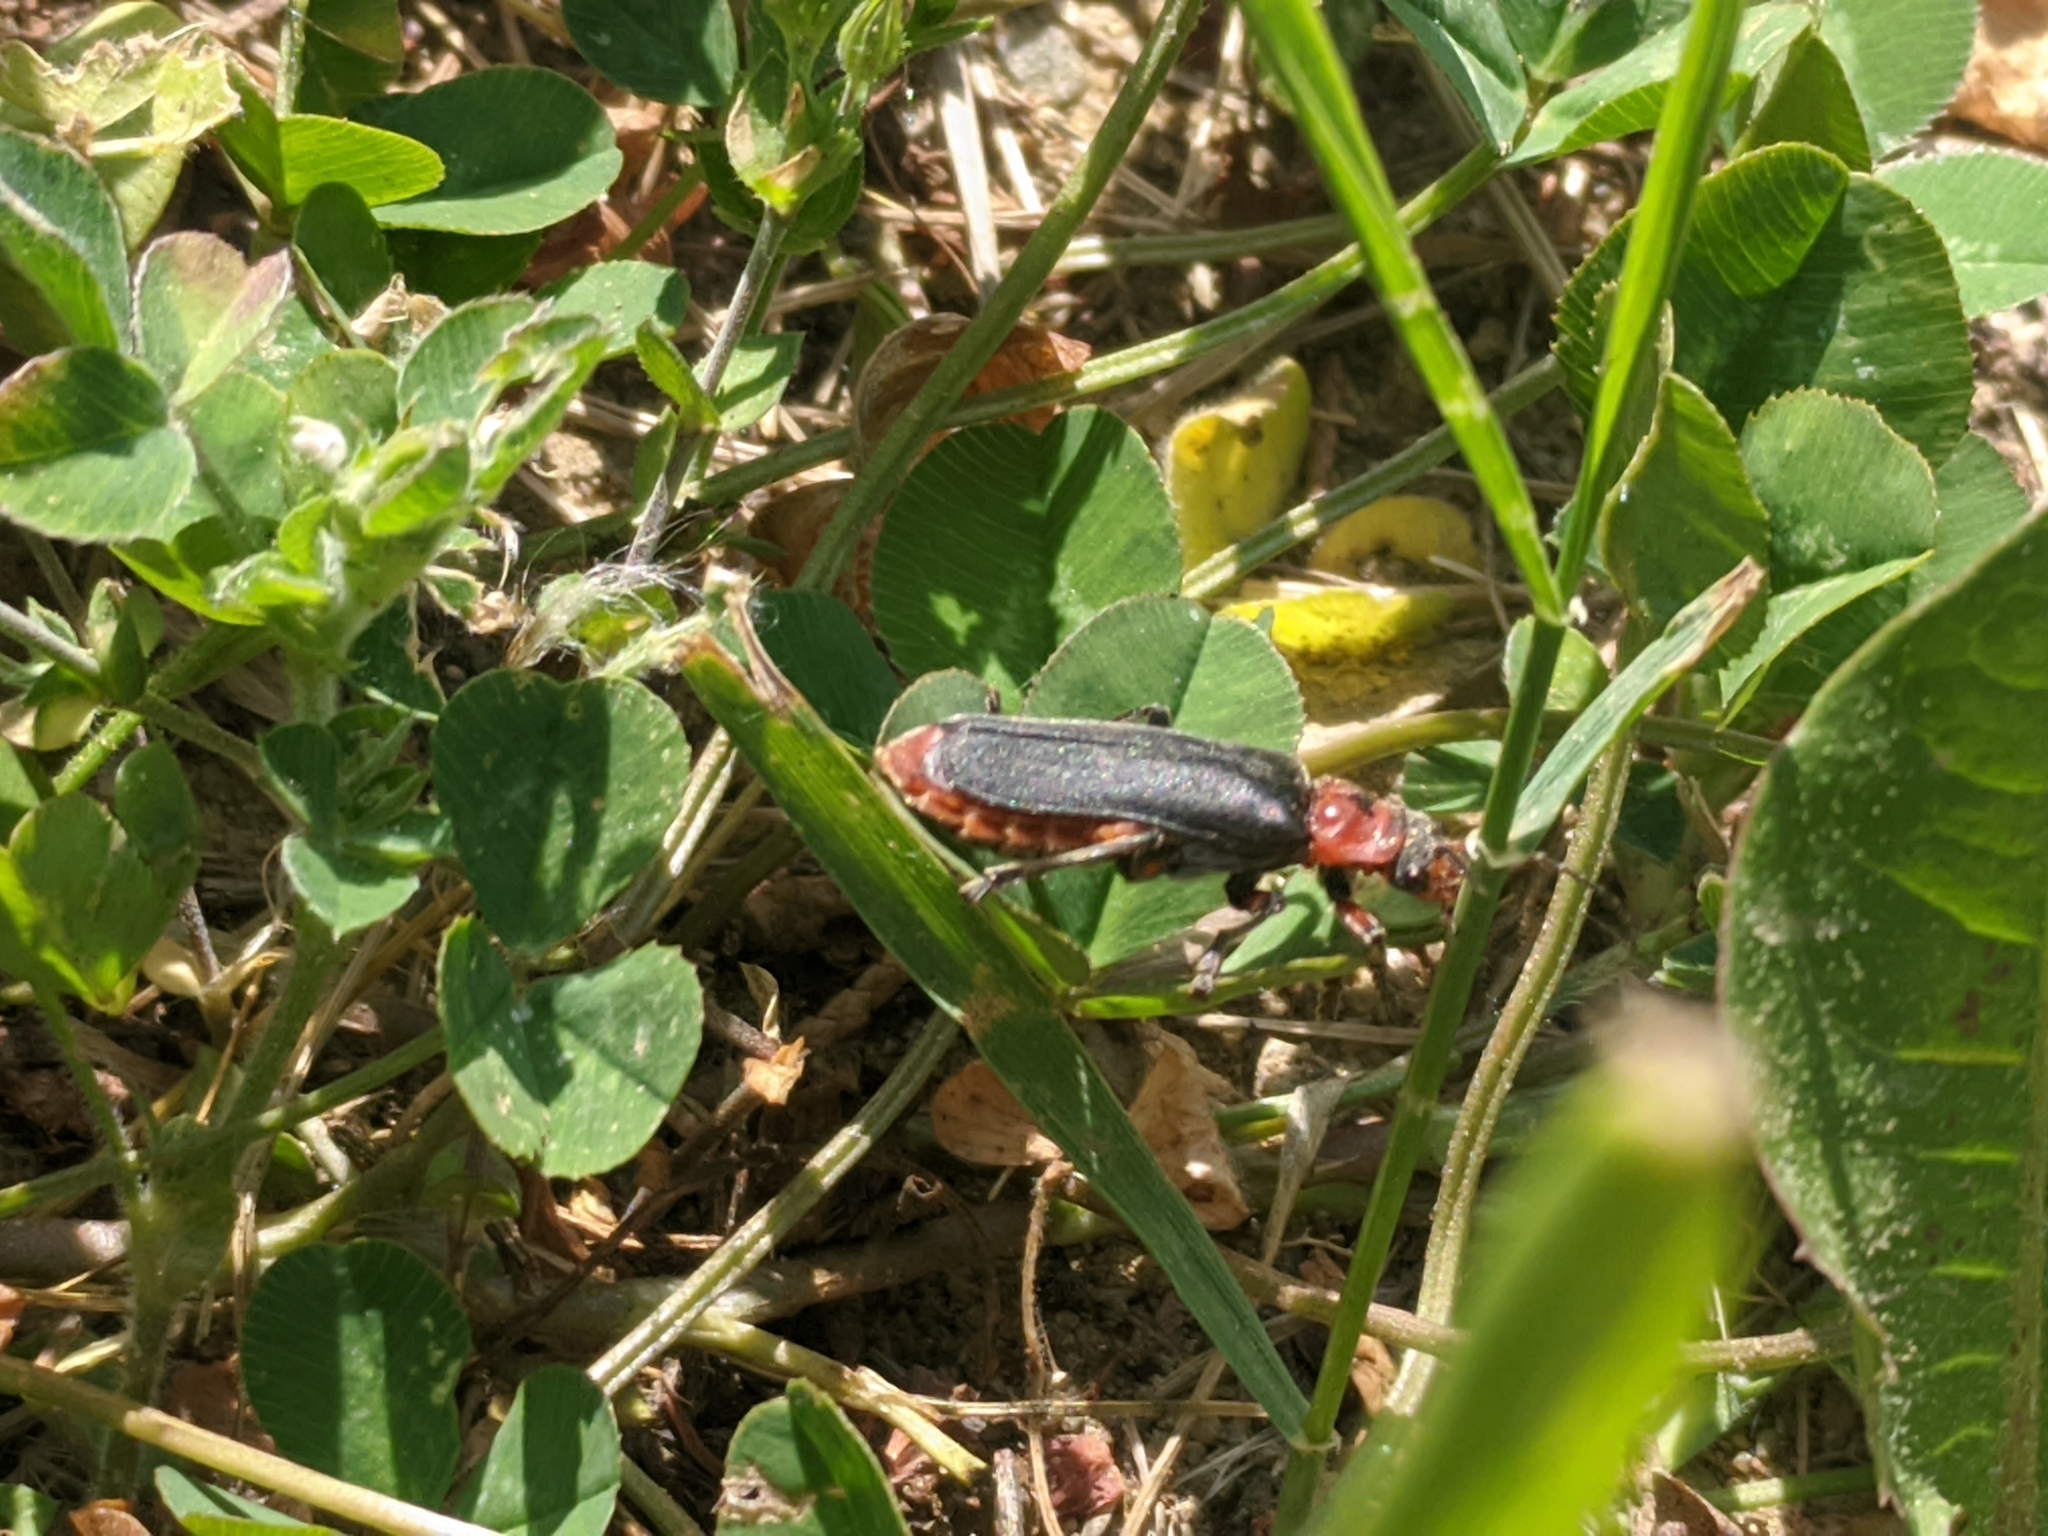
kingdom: Animalia
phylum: Arthropoda
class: Insecta
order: Coleoptera
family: Cantharidae
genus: Cantharis
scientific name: Cantharis rustica
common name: Soldier beetle
